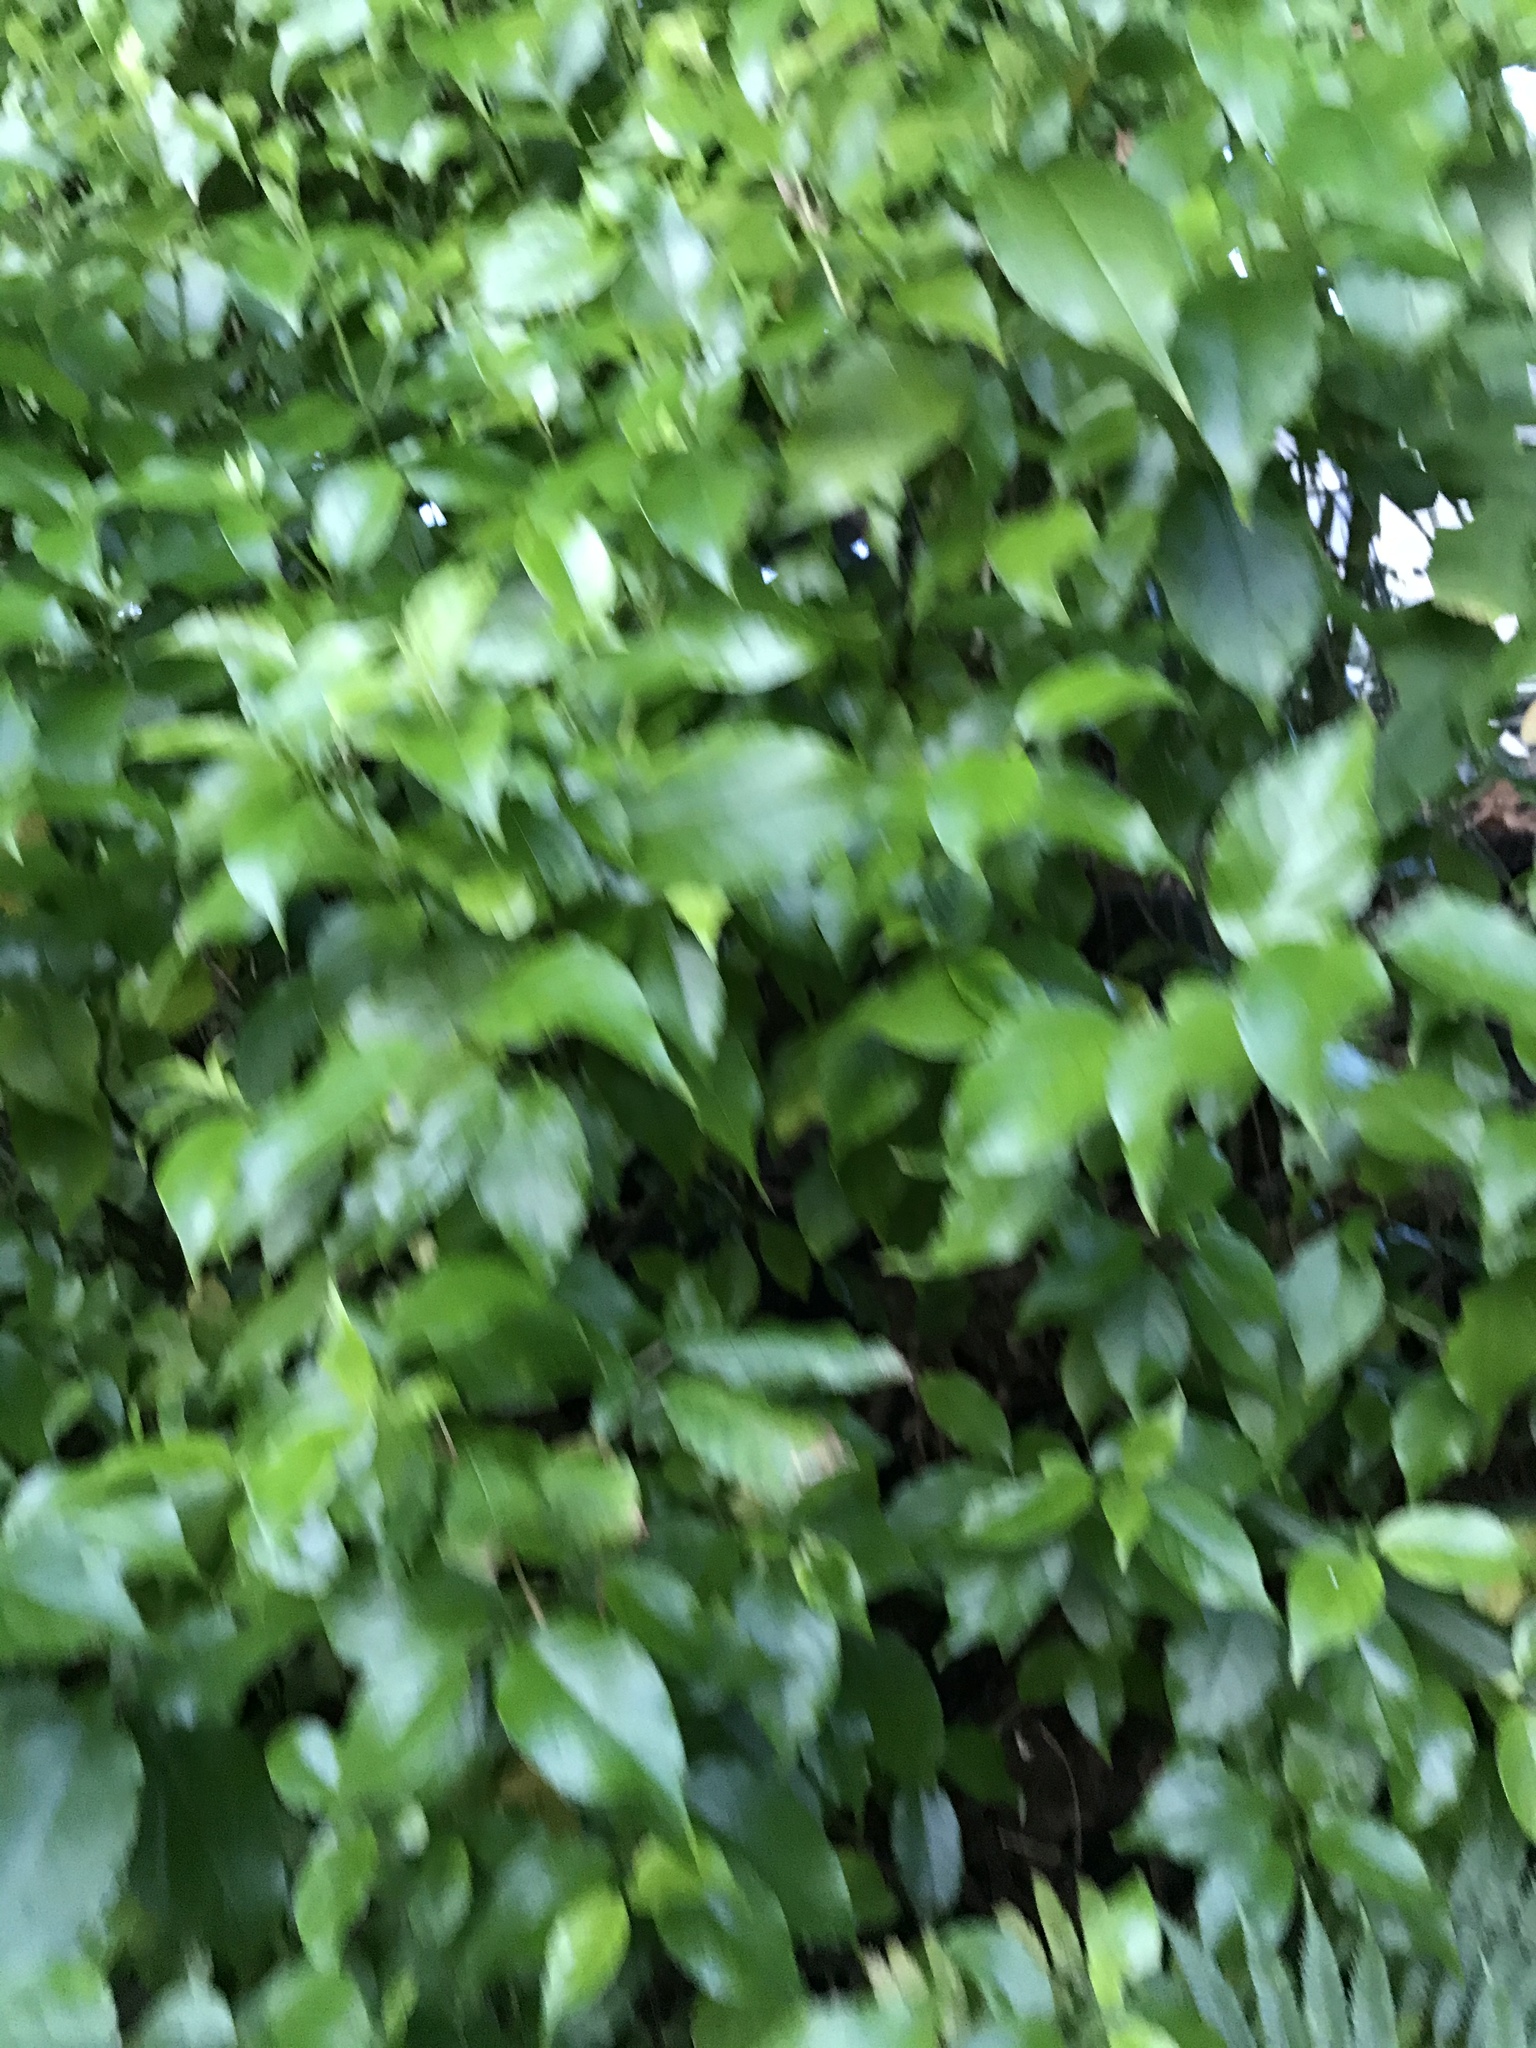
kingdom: Plantae
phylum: Tracheophyta
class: Magnoliopsida
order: Gentianales
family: Loganiaceae
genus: Geniostoma
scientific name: Geniostoma ligustrifolium
